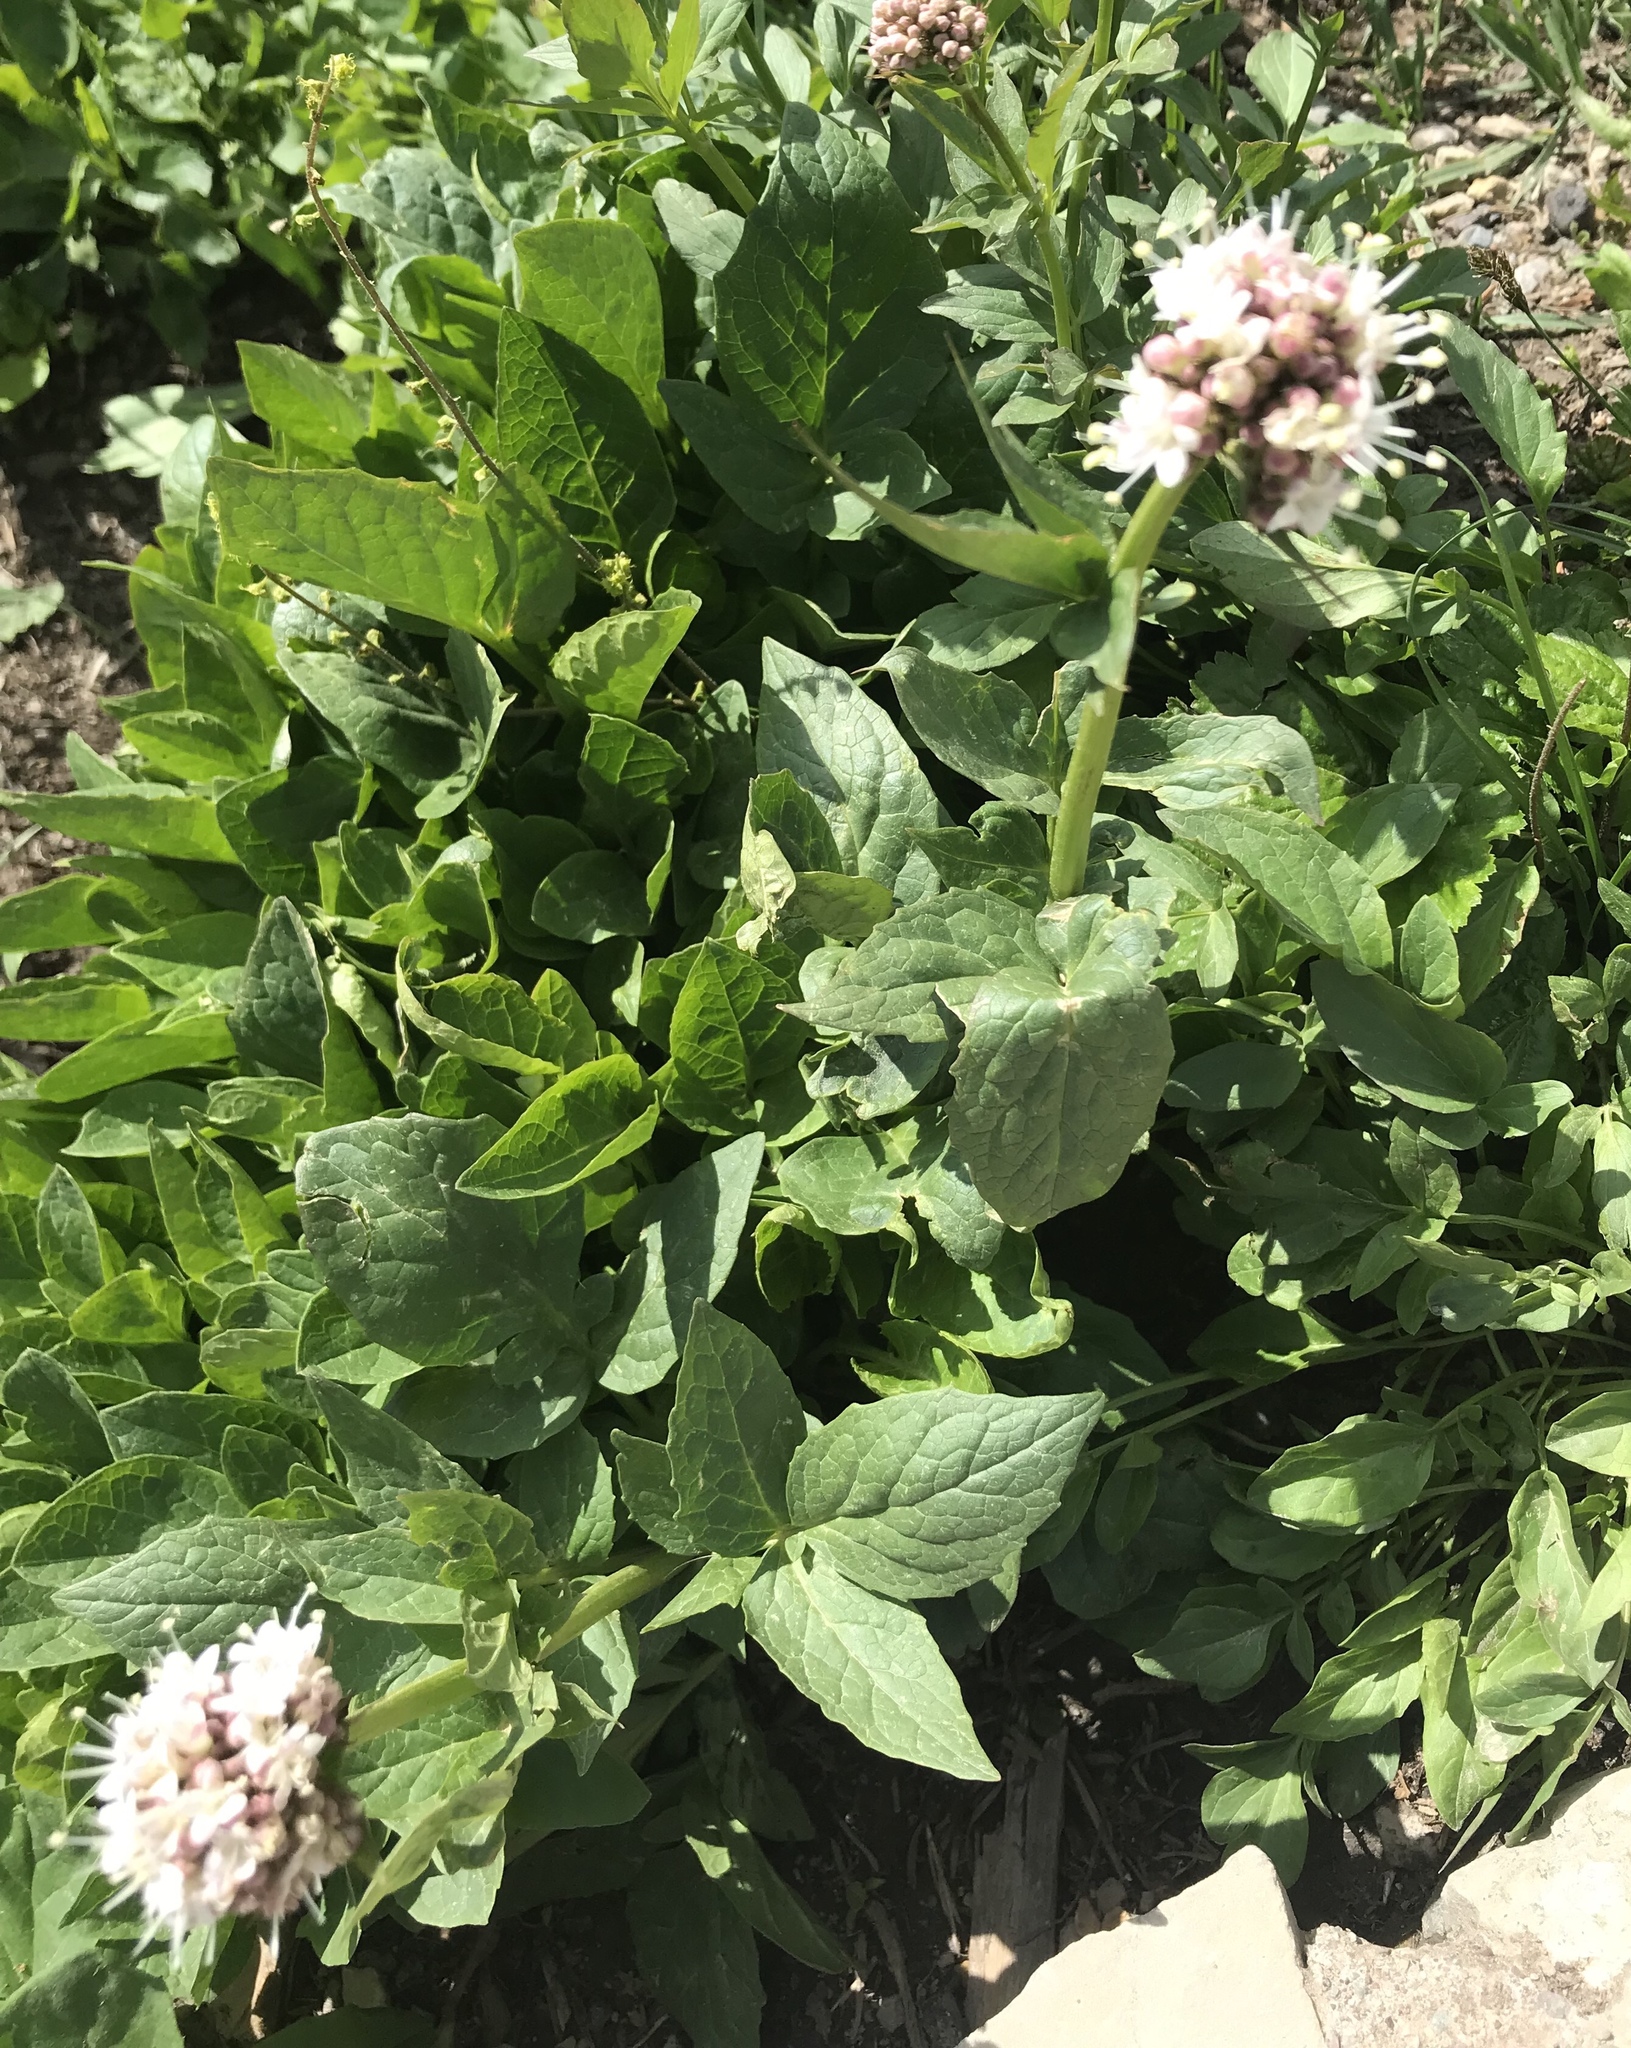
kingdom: Plantae
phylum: Tracheophyta
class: Magnoliopsida
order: Dipsacales
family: Caprifoliaceae
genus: Valeriana
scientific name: Valeriana sitchensis
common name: Pacific valerian
